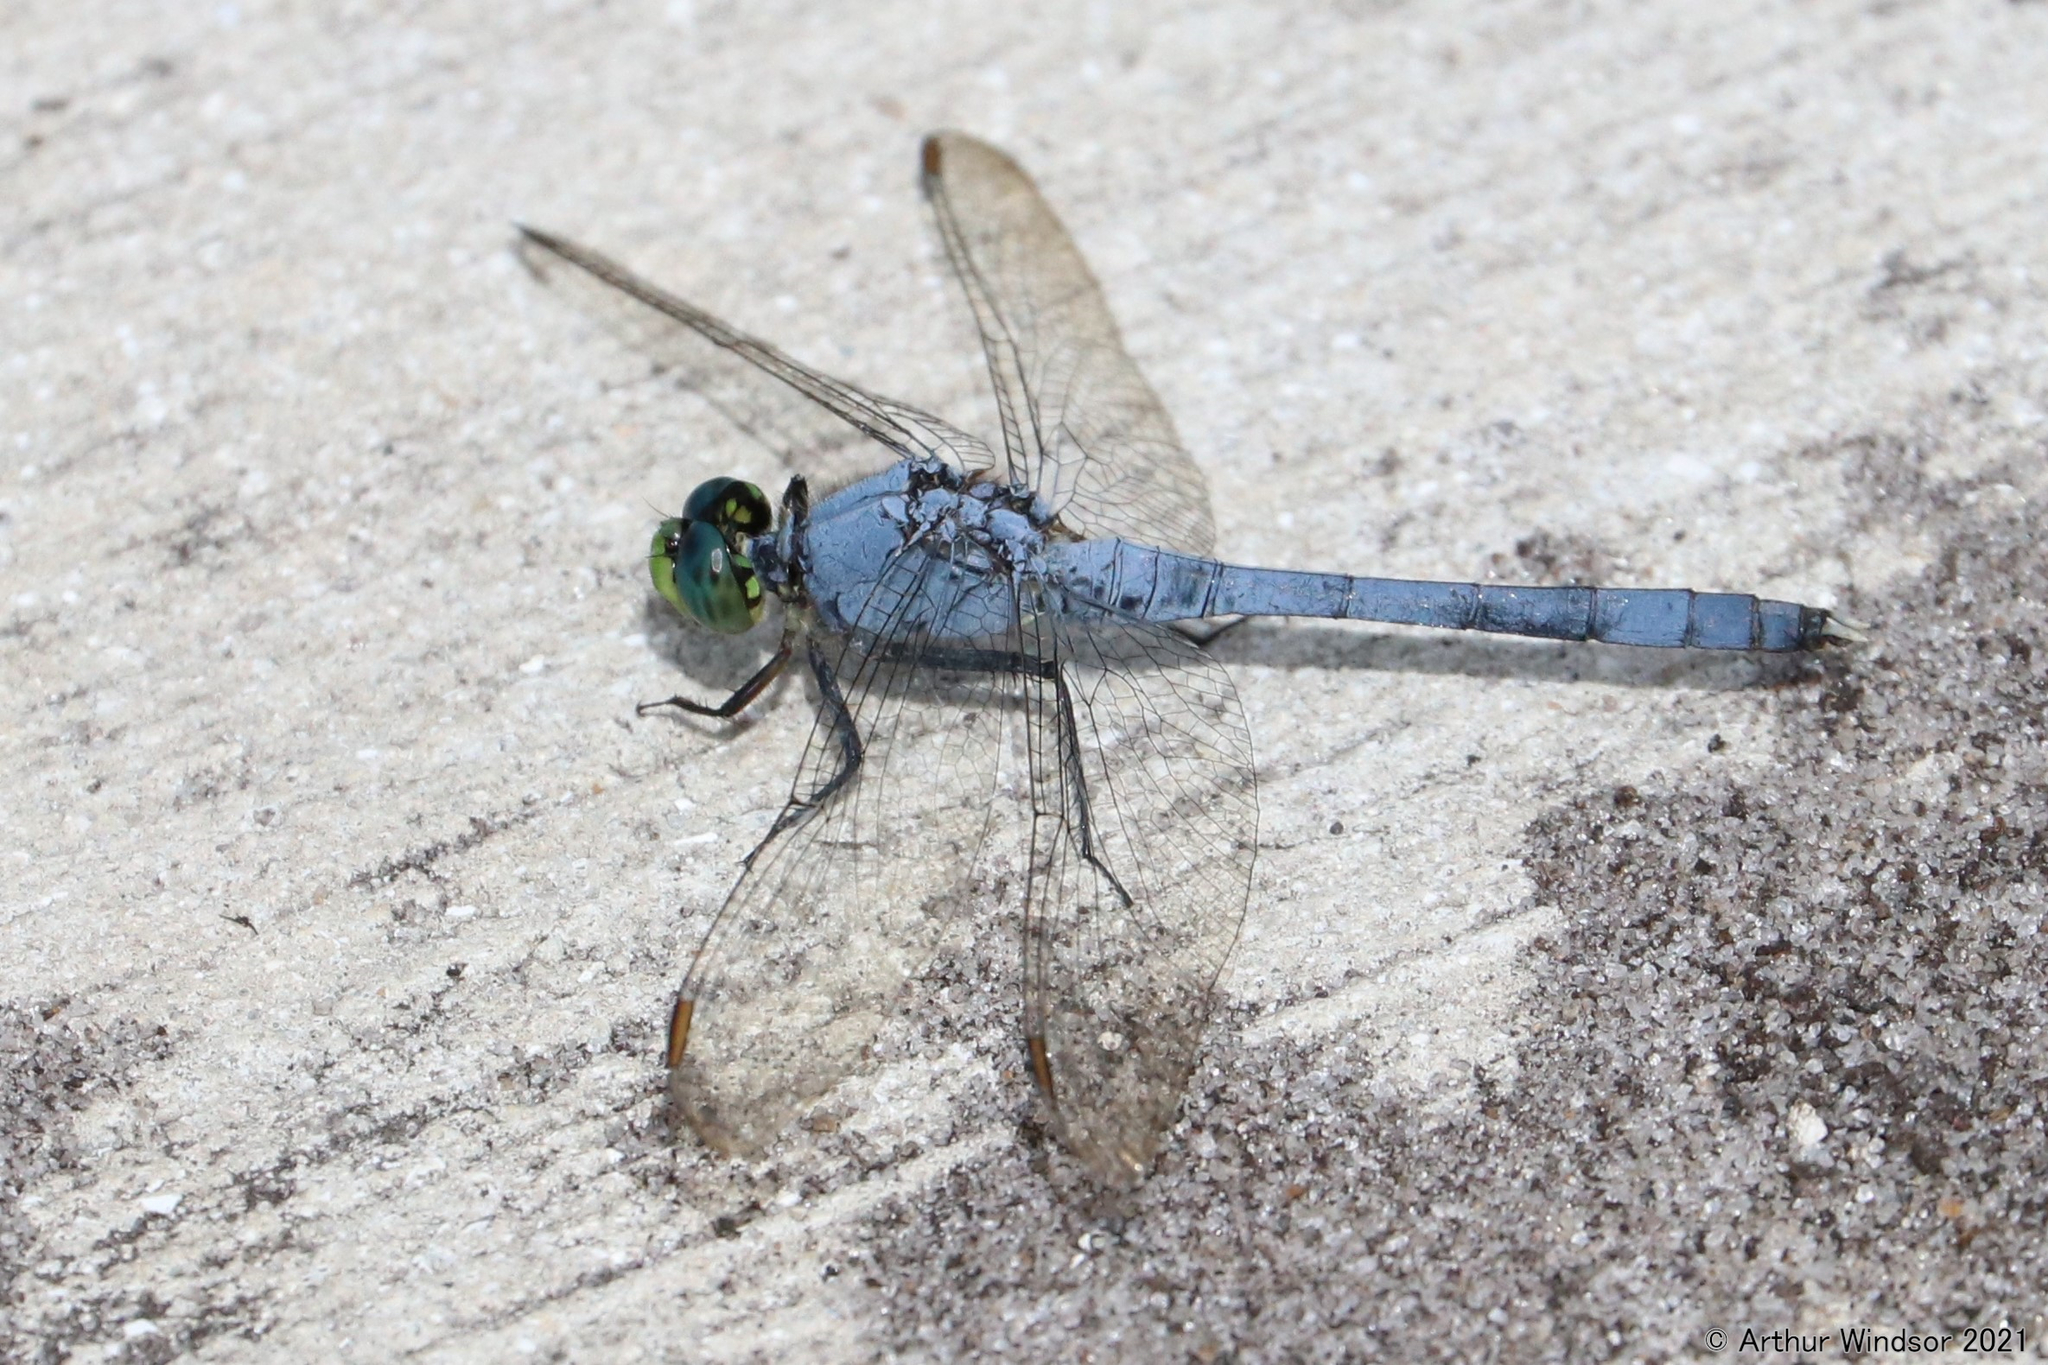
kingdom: Animalia
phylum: Arthropoda
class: Insecta
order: Odonata
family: Libellulidae
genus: Erythemis
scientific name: Erythemis simplicicollis
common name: Eastern pondhawk
